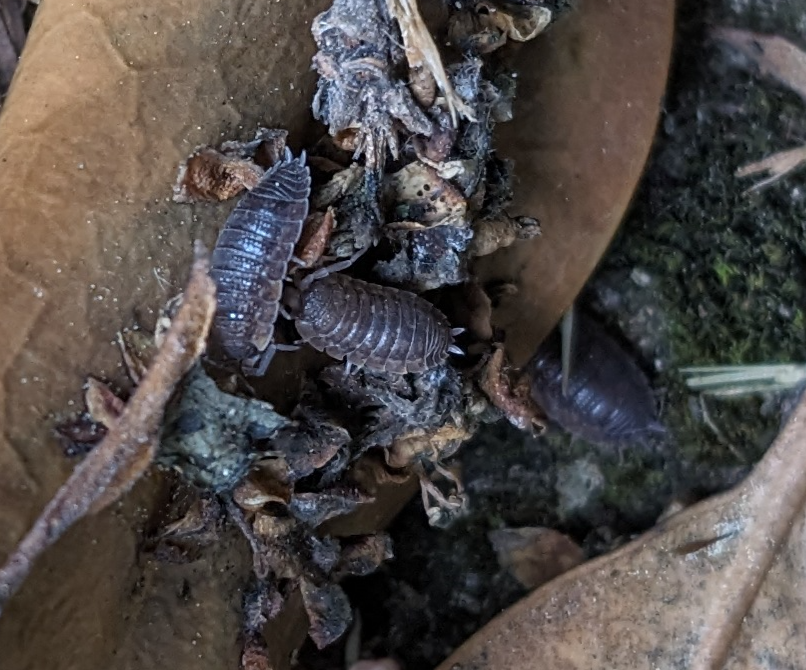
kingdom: Animalia
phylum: Arthropoda
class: Malacostraca
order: Isopoda
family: Porcellionidae
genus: Porcellio
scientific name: Porcellio scaber
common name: Common rough woodlouse
